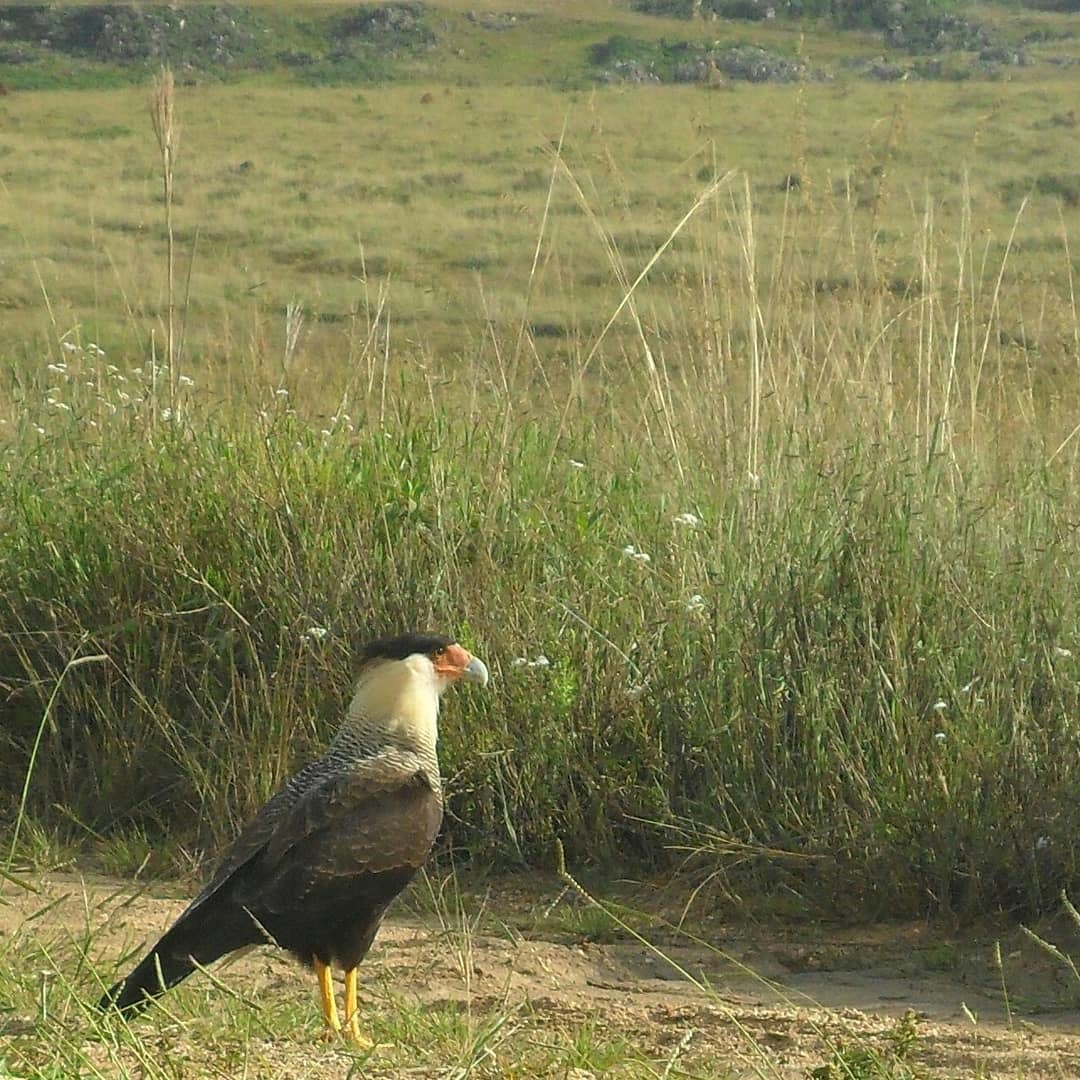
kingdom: Animalia
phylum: Chordata
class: Aves
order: Falconiformes
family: Falconidae
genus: Caracara
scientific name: Caracara plancus
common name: Southern caracara
